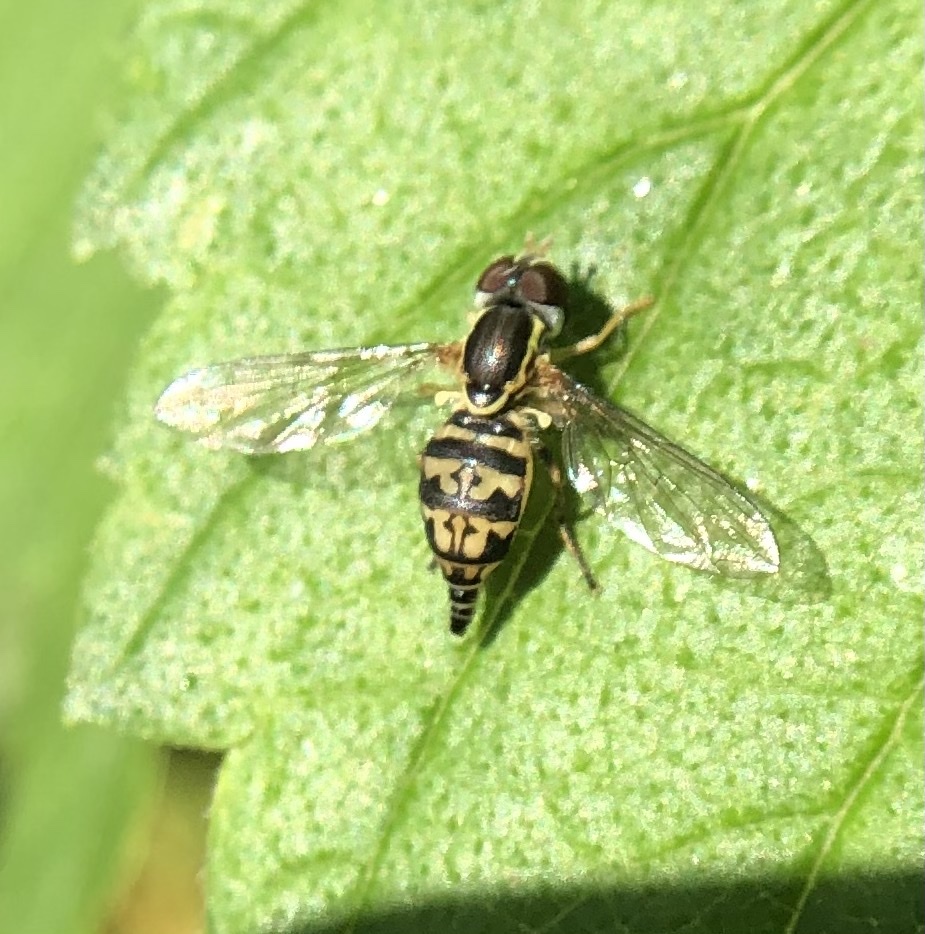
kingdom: Animalia
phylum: Arthropoda
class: Insecta
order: Diptera
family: Syrphidae
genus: Toxomerus
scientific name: Toxomerus geminatus
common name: Eastern calligrapher
